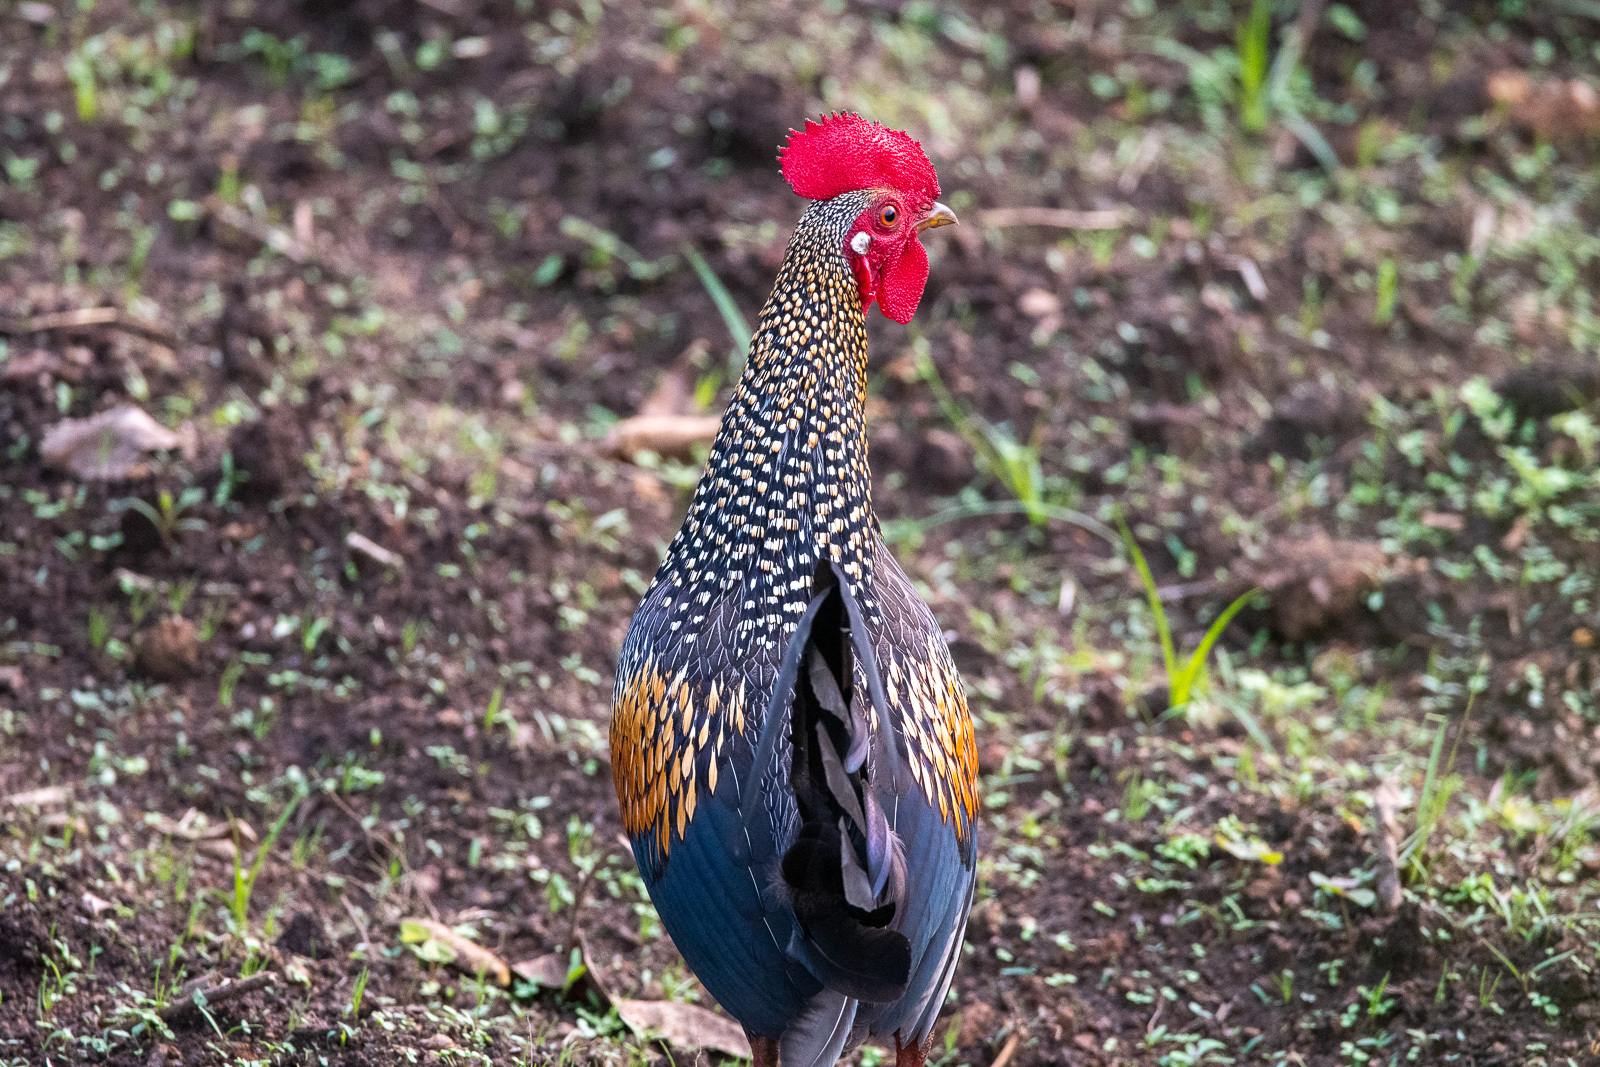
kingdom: Animalia
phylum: Chordata
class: Aves
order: Galliformes
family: Phasianidae
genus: Gallus
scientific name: Gallus sonneratii
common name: Grey junglefowl
